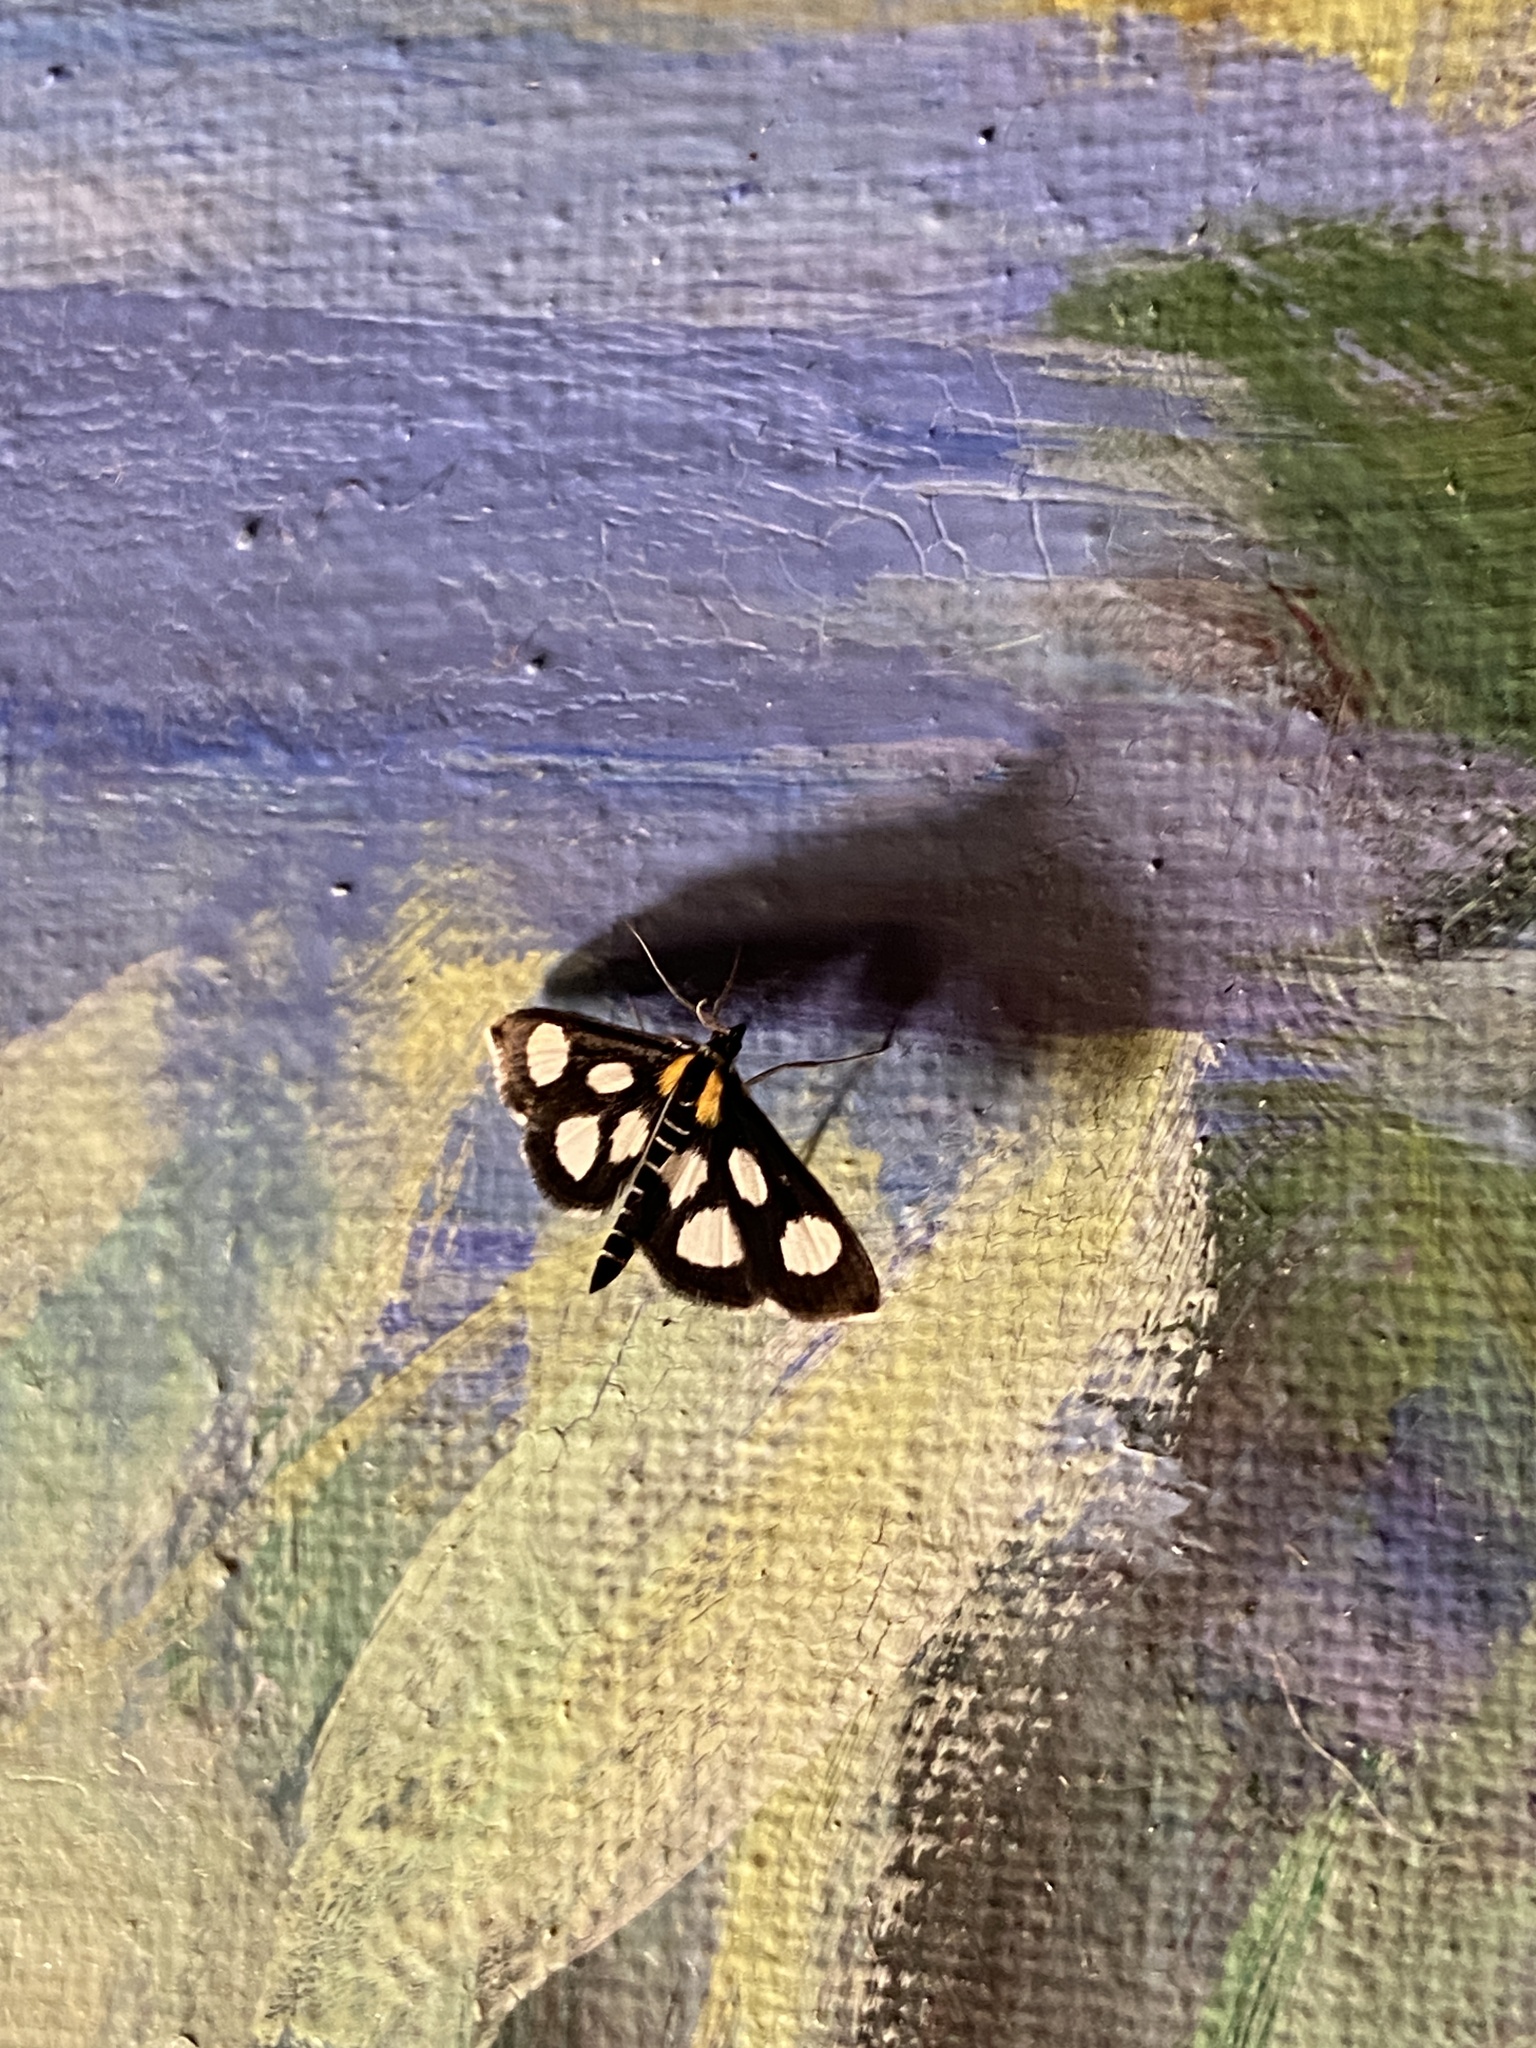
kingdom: Animalia
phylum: Arthropoda
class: Insecta
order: Lepidoptera
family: Crambidae
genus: Anania
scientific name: Anania funebris
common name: White-spotted sable moth
